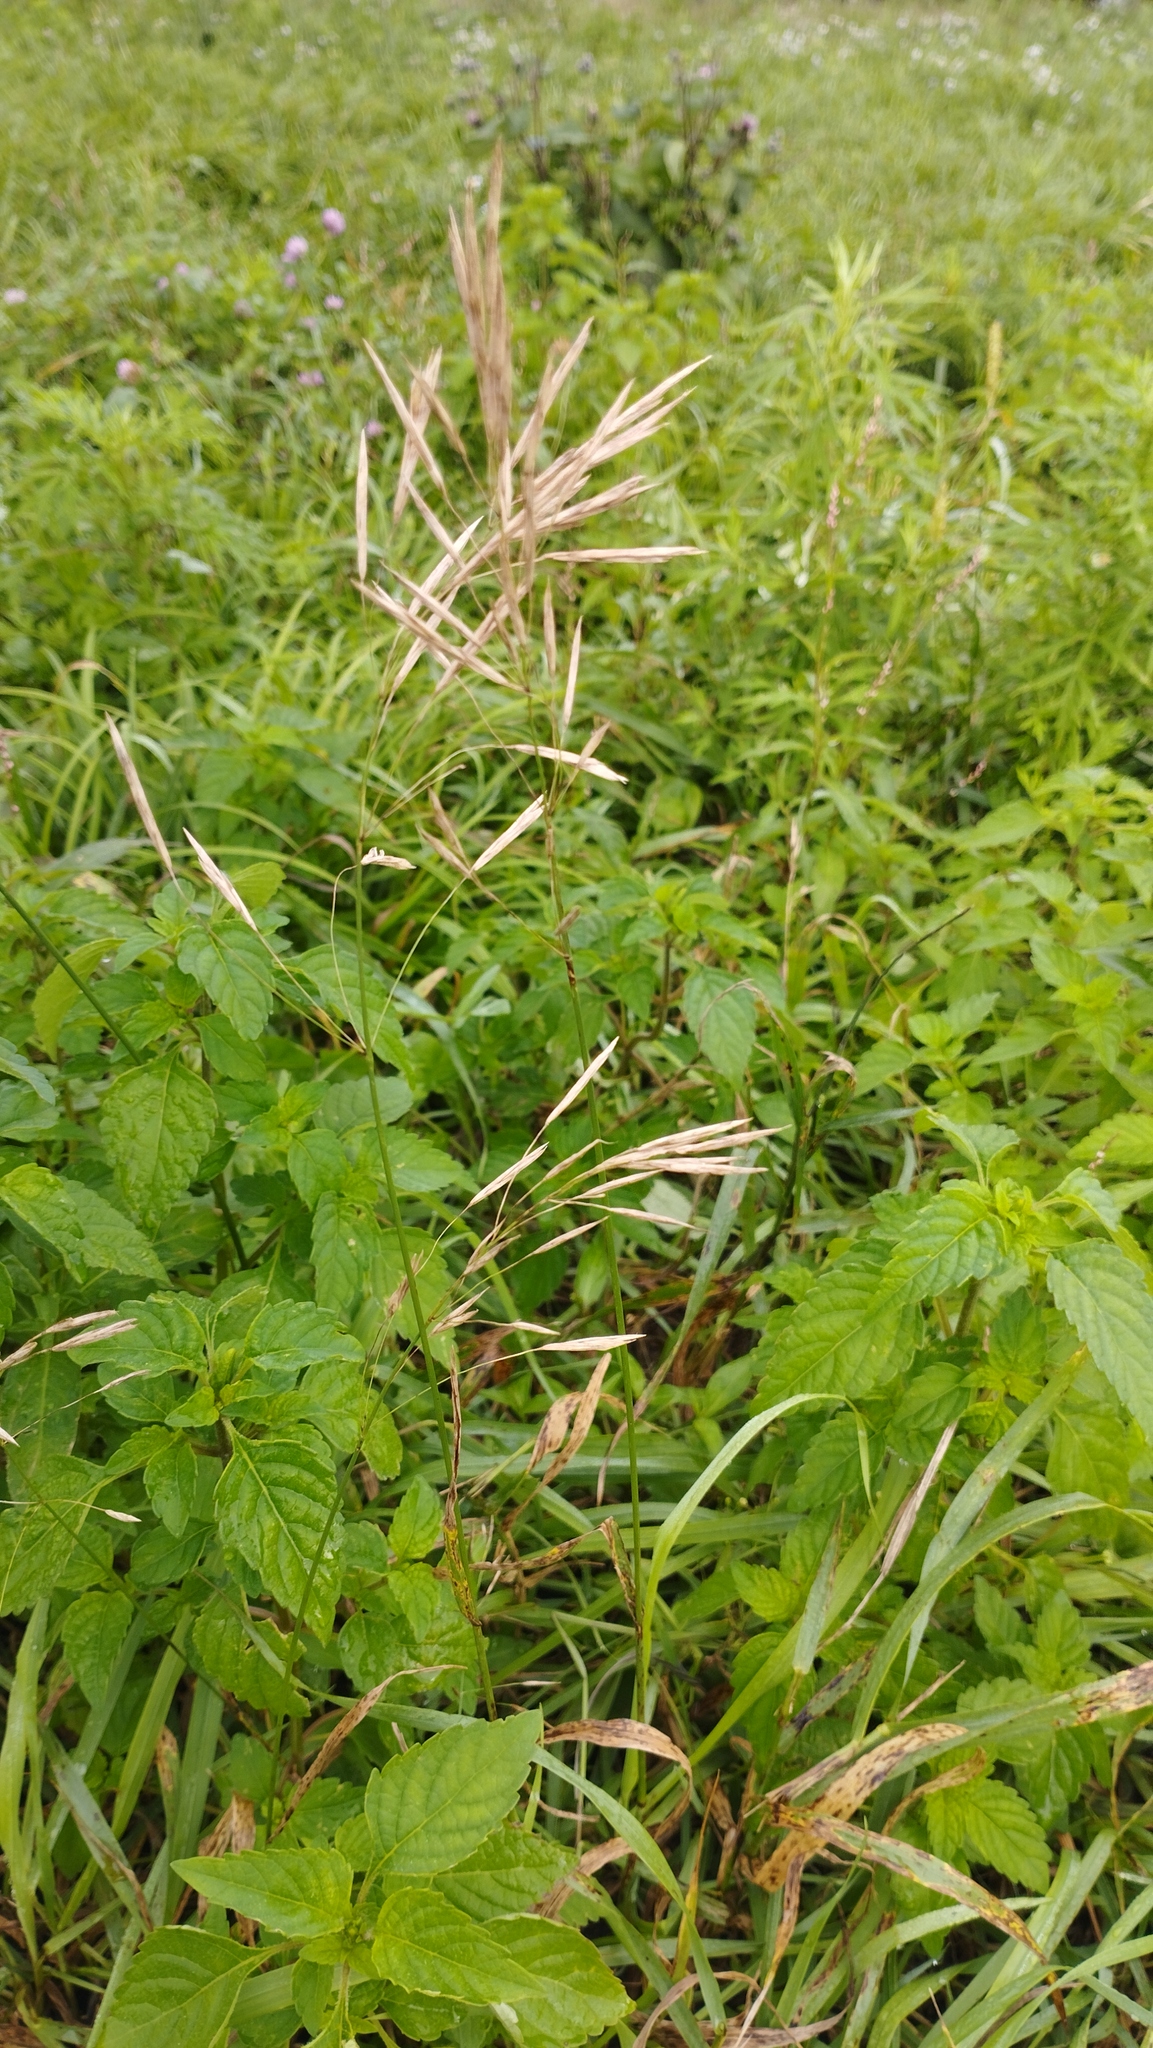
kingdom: Plantae
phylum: Tracheophyta
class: Liliopsida
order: Poales
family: Poaceae
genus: Bromus
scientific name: Bromus inermis
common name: Smooth brome
